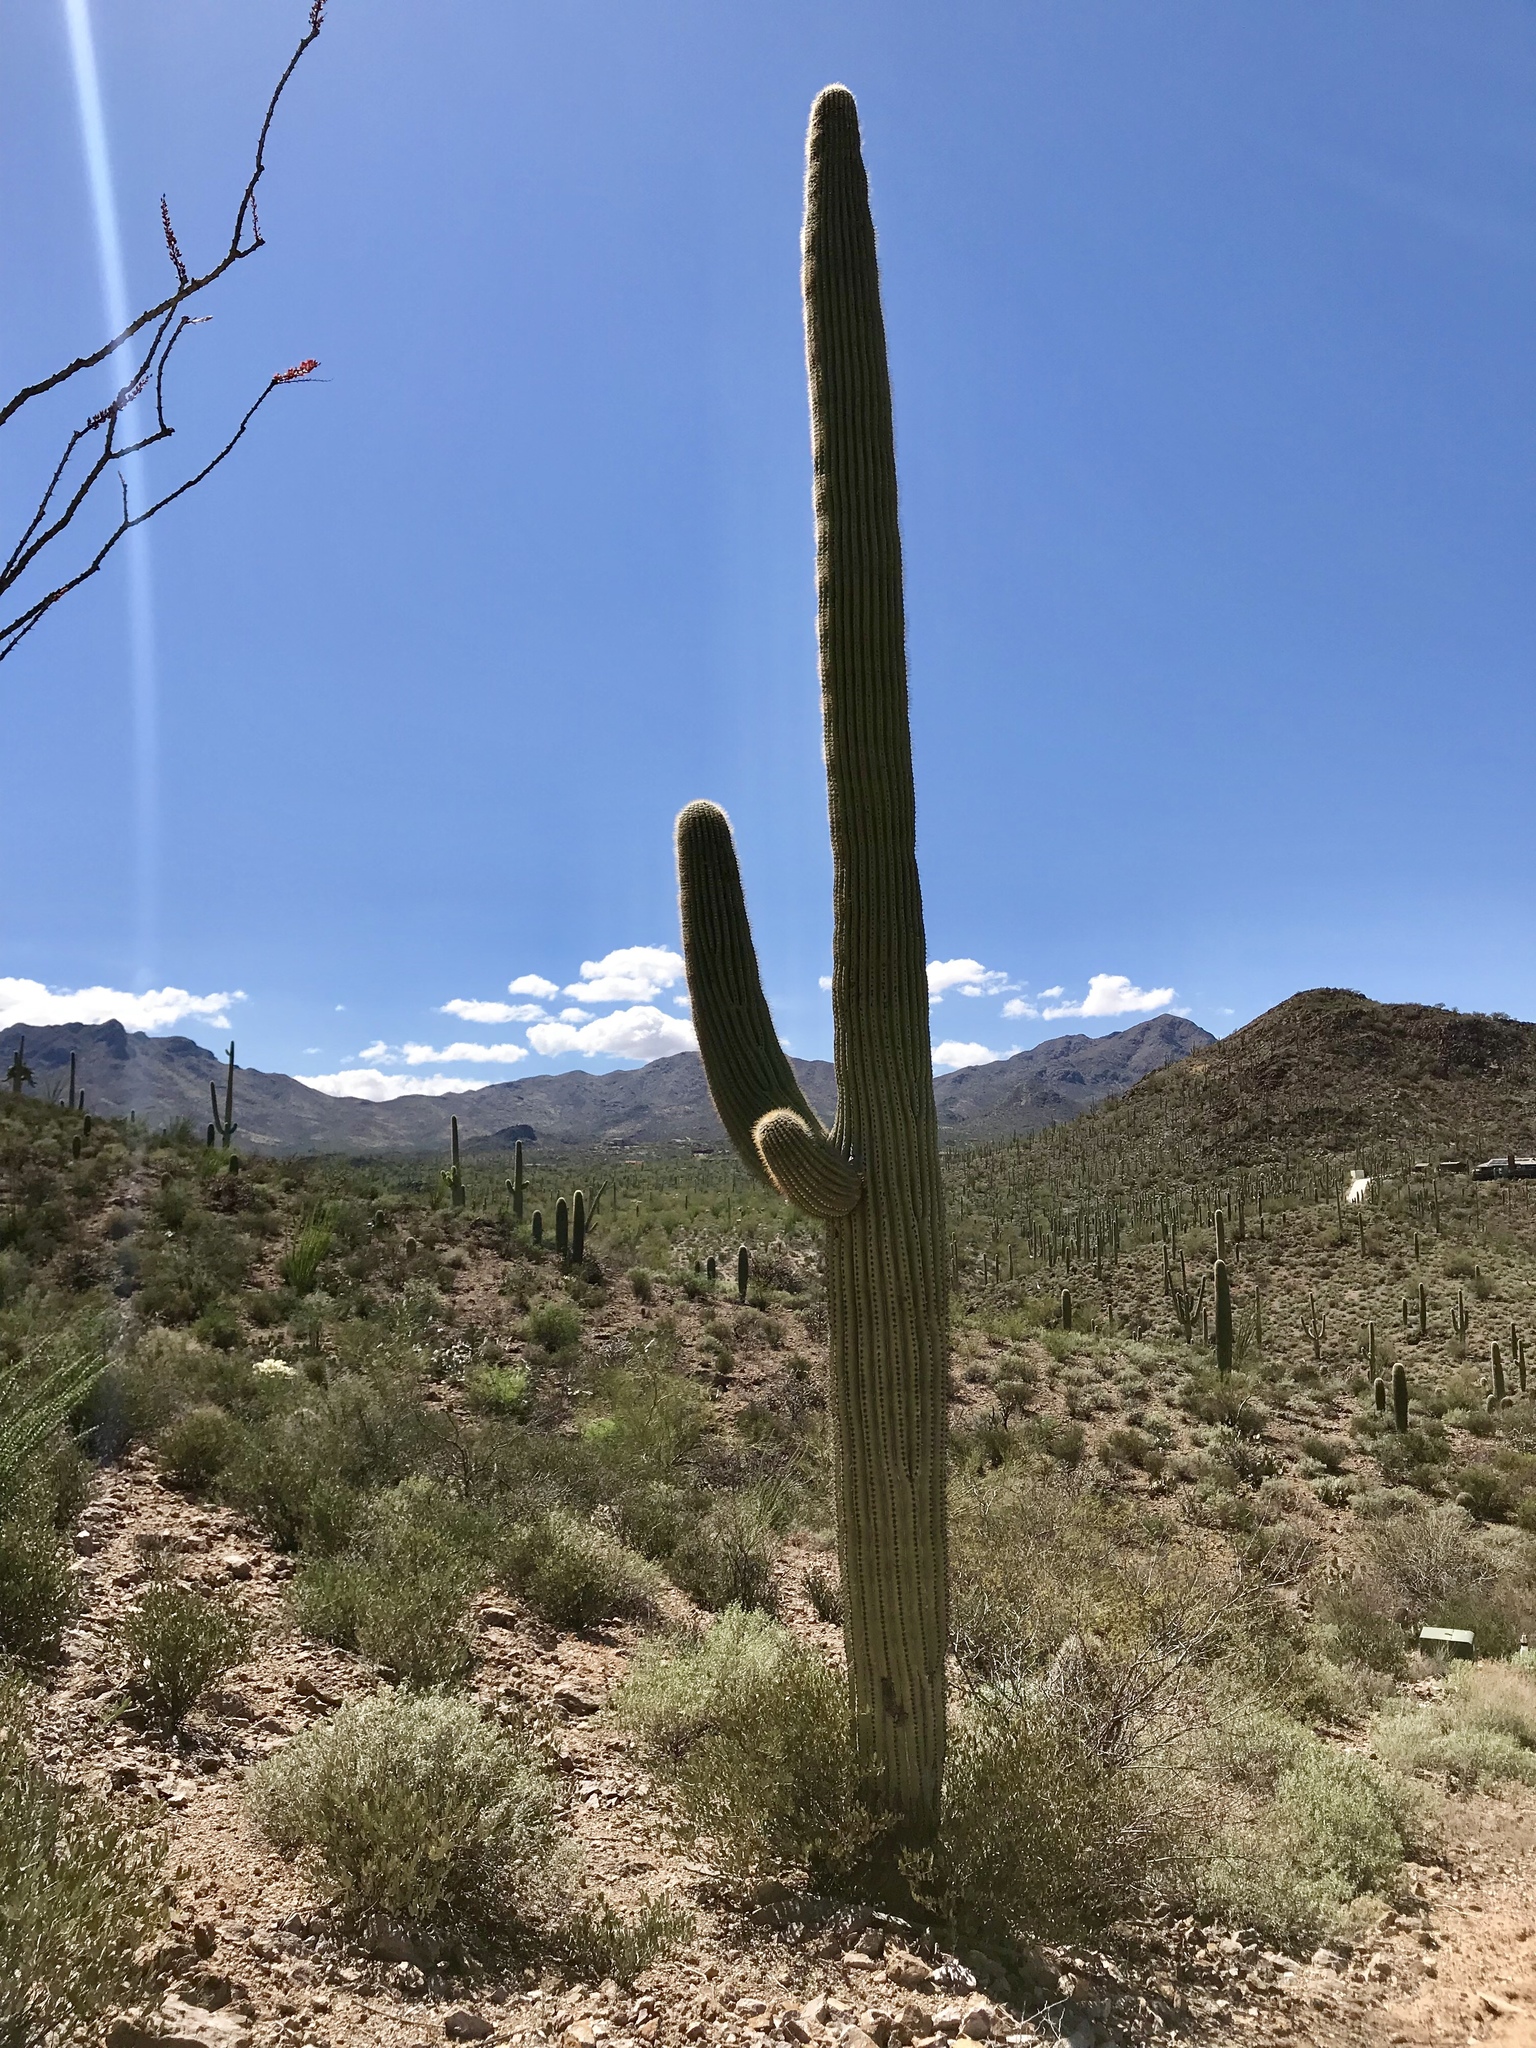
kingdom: Plantae
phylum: Tracheophyta
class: Magnoliopsida
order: Caryophyllales
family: Cactaceae
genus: Carnegiea
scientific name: Carnegiea gigantea
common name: Saguaro
